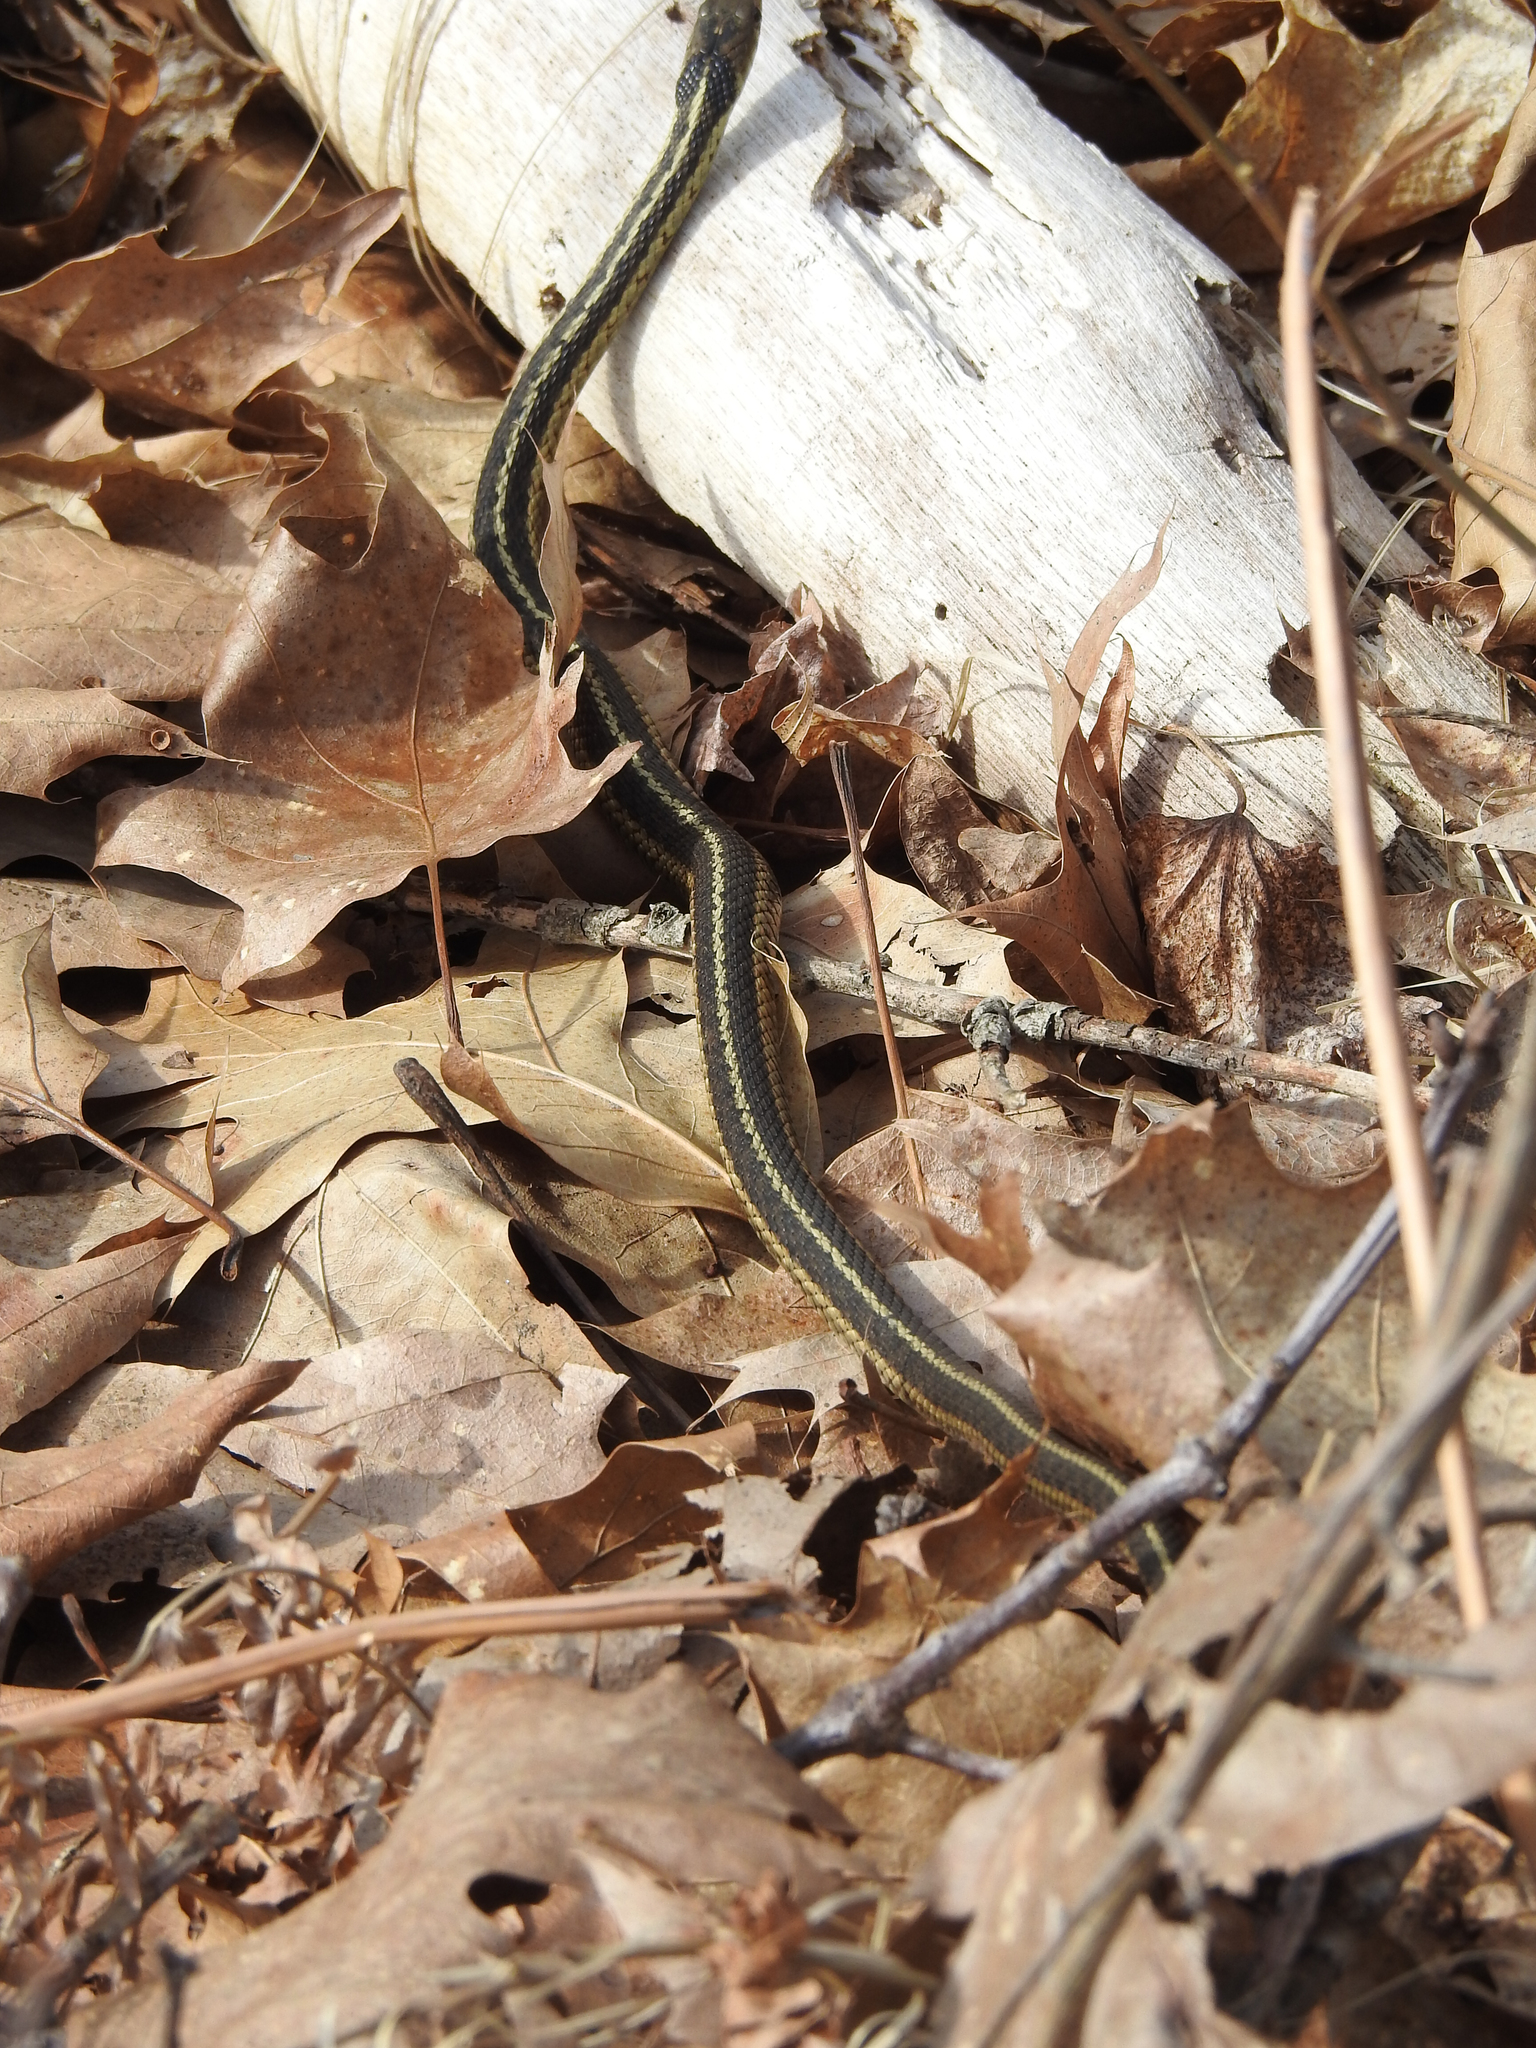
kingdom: Animalia
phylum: Chordata
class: Squamata
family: Colubridae
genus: Thamnophis
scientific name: Thamnophis sirtalis
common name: Common garter snake
